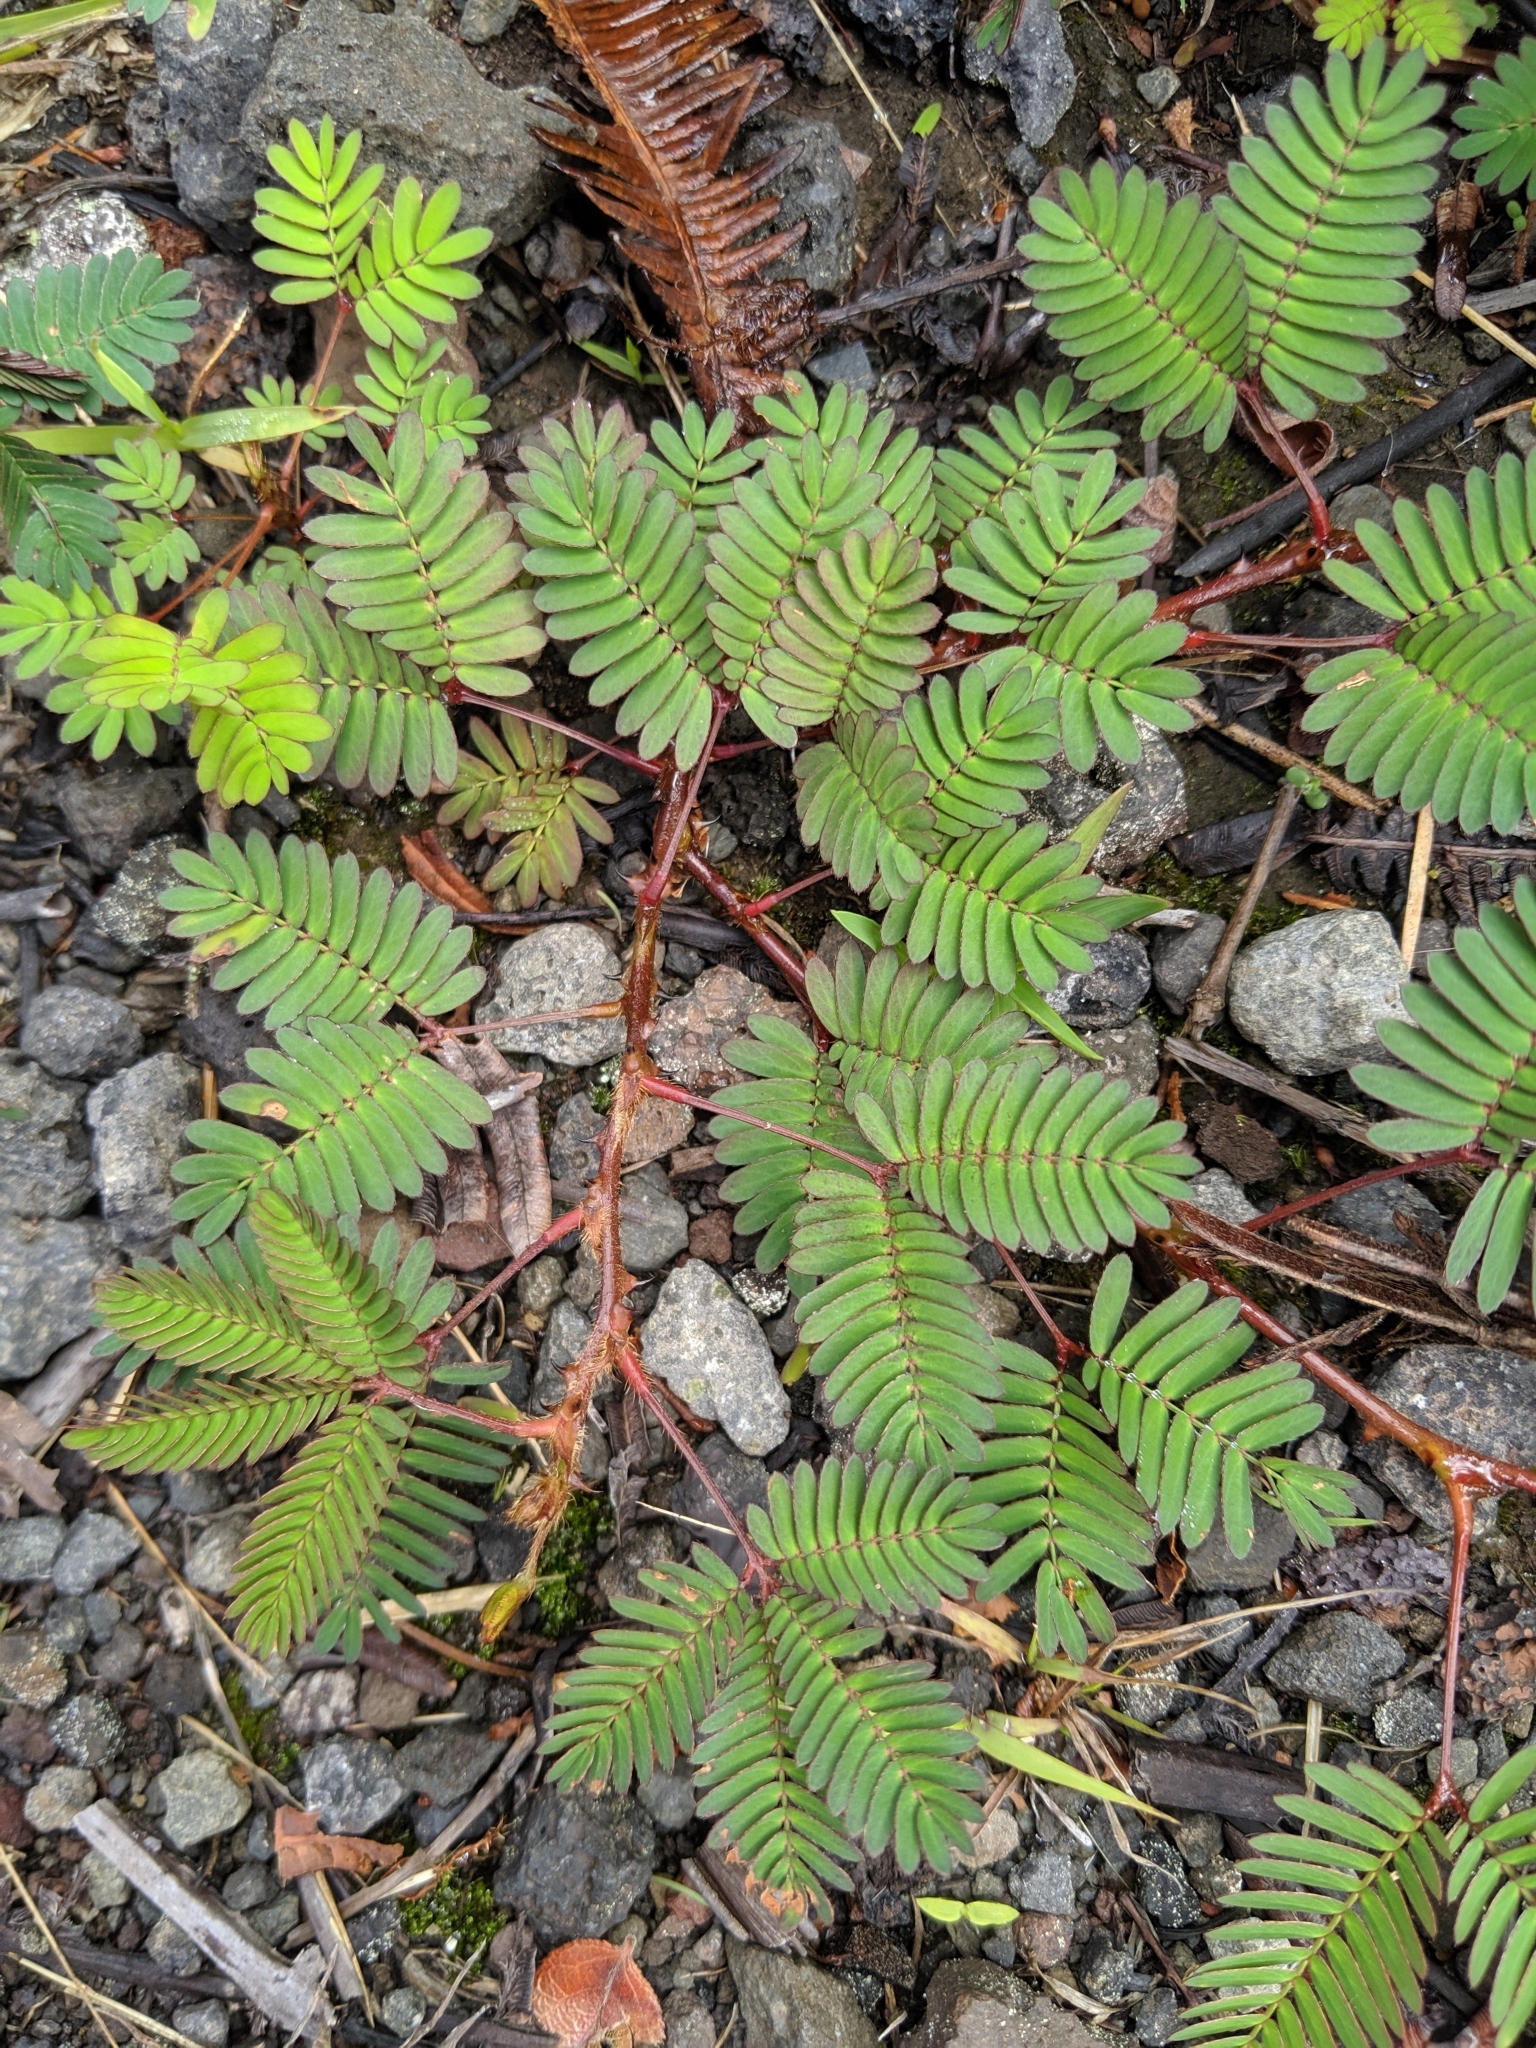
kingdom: Plantae
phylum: Tracheophyta
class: Magnoliopsida
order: Fabales
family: Fabaceae
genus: Mimosa
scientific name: Mimosa pudica
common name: Sensitive plant
